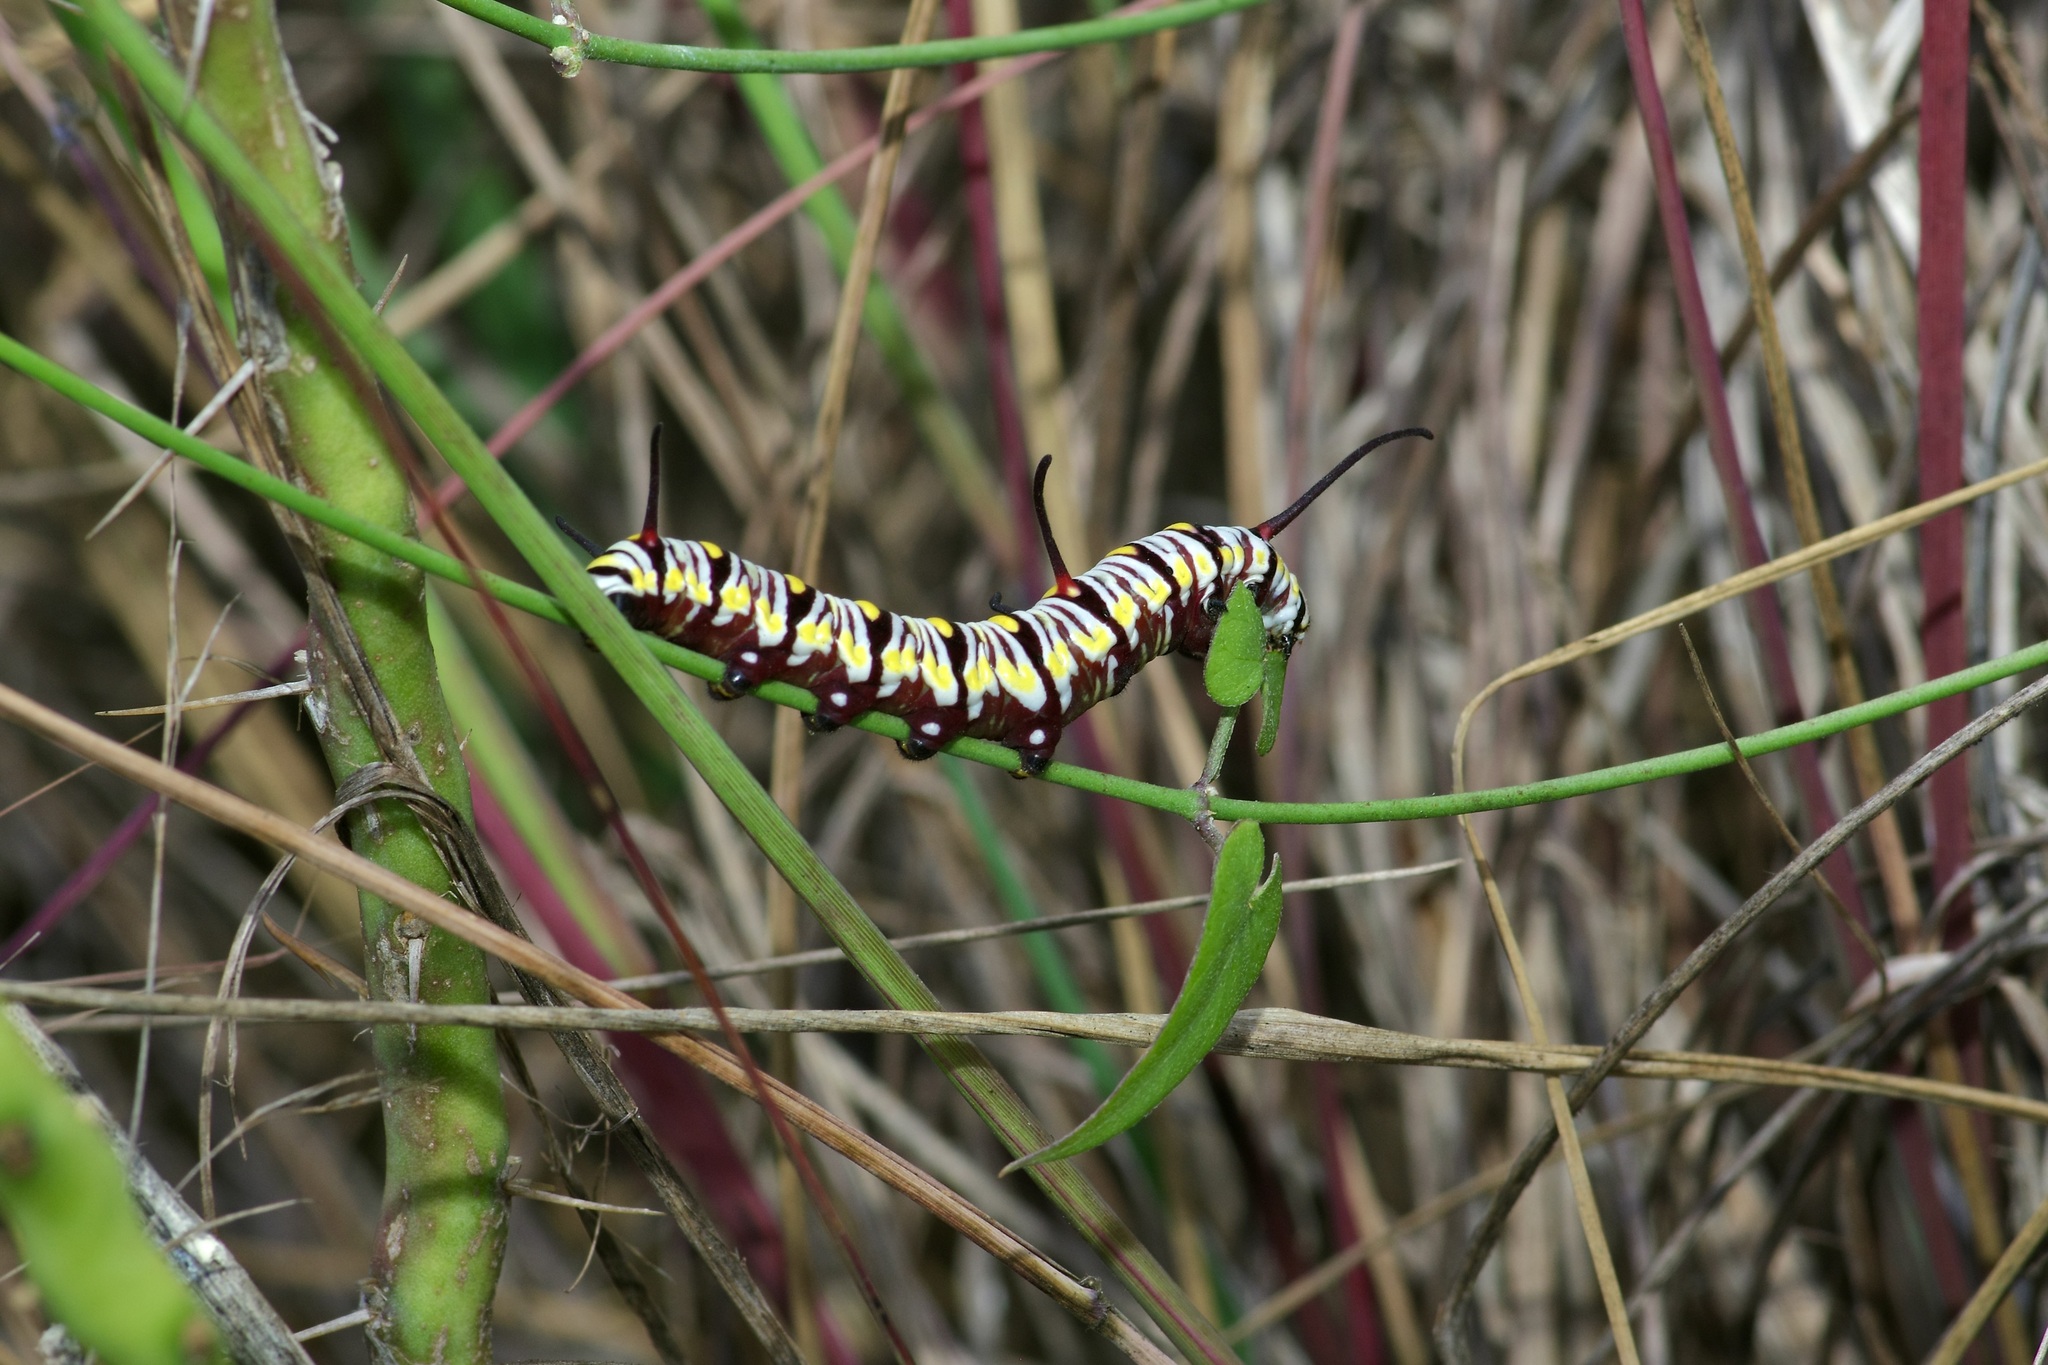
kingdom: Animalia
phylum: Arthropoda
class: Insecta
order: Lepidoptera
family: Nymphalidae
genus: Danaus
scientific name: Danaus gilippus
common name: Queen
